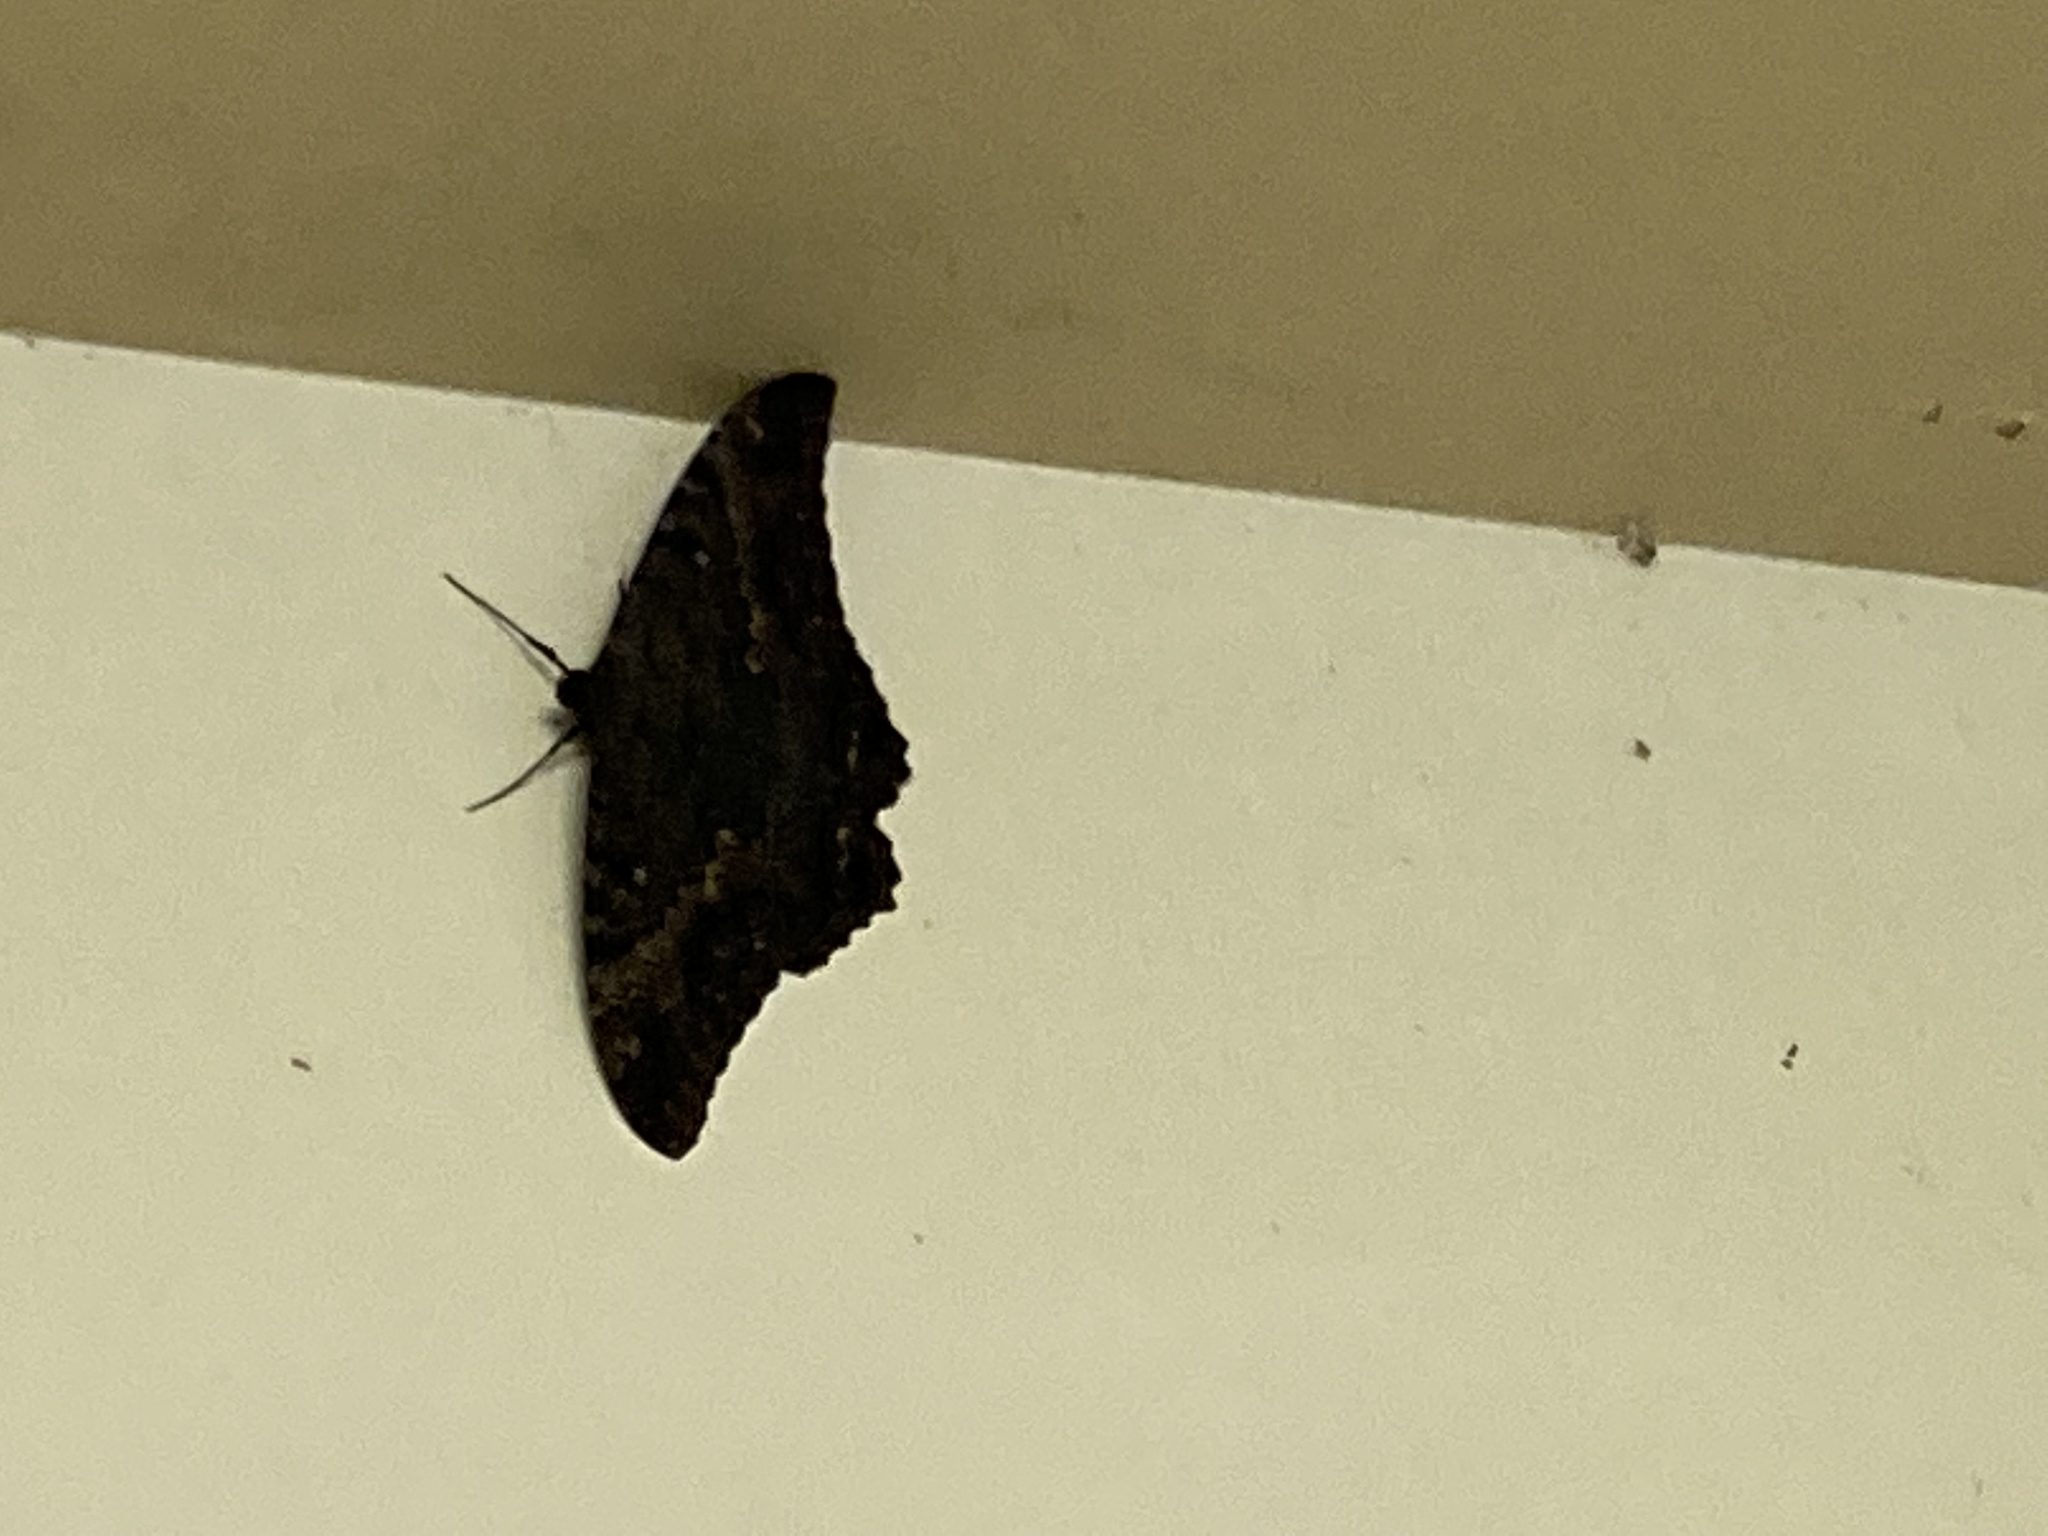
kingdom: Animalia
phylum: Arthropoda
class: Insecta
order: Lepidoptera
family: Erebidae
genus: Ascalapha
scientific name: Ascalapha odorata
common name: Black witch
